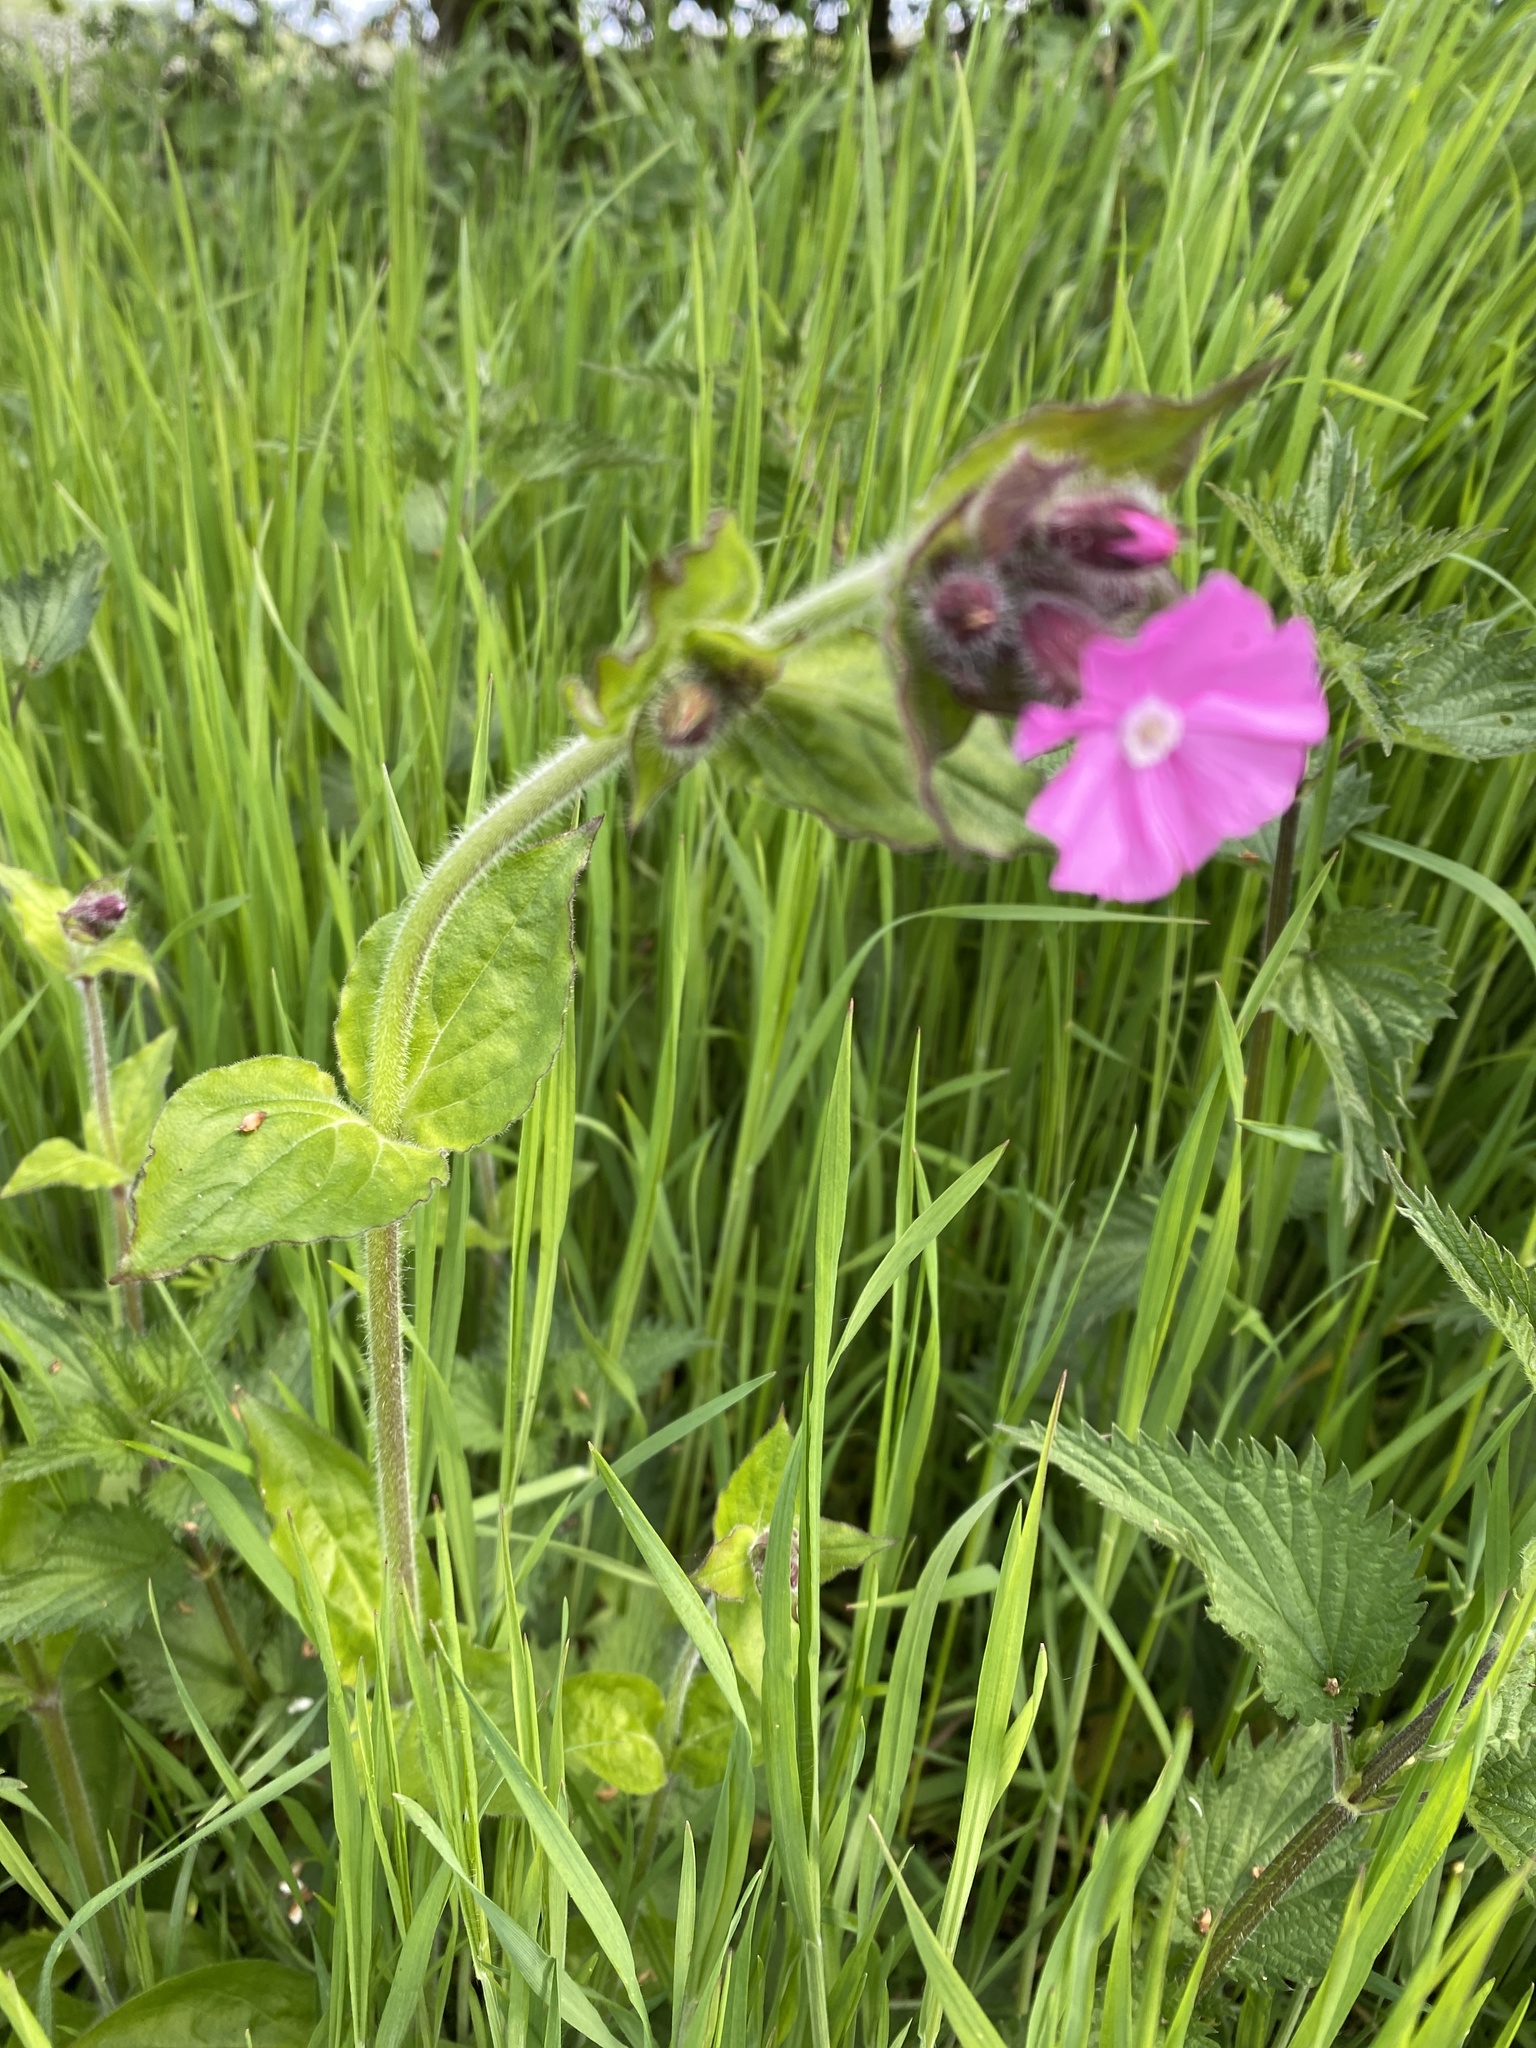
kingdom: Plantae
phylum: Tracheophyta
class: Magnoliopsida
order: Caryophyllales
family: Caryophyllaceae
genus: Silene
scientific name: Silene dioica
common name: Red campion
